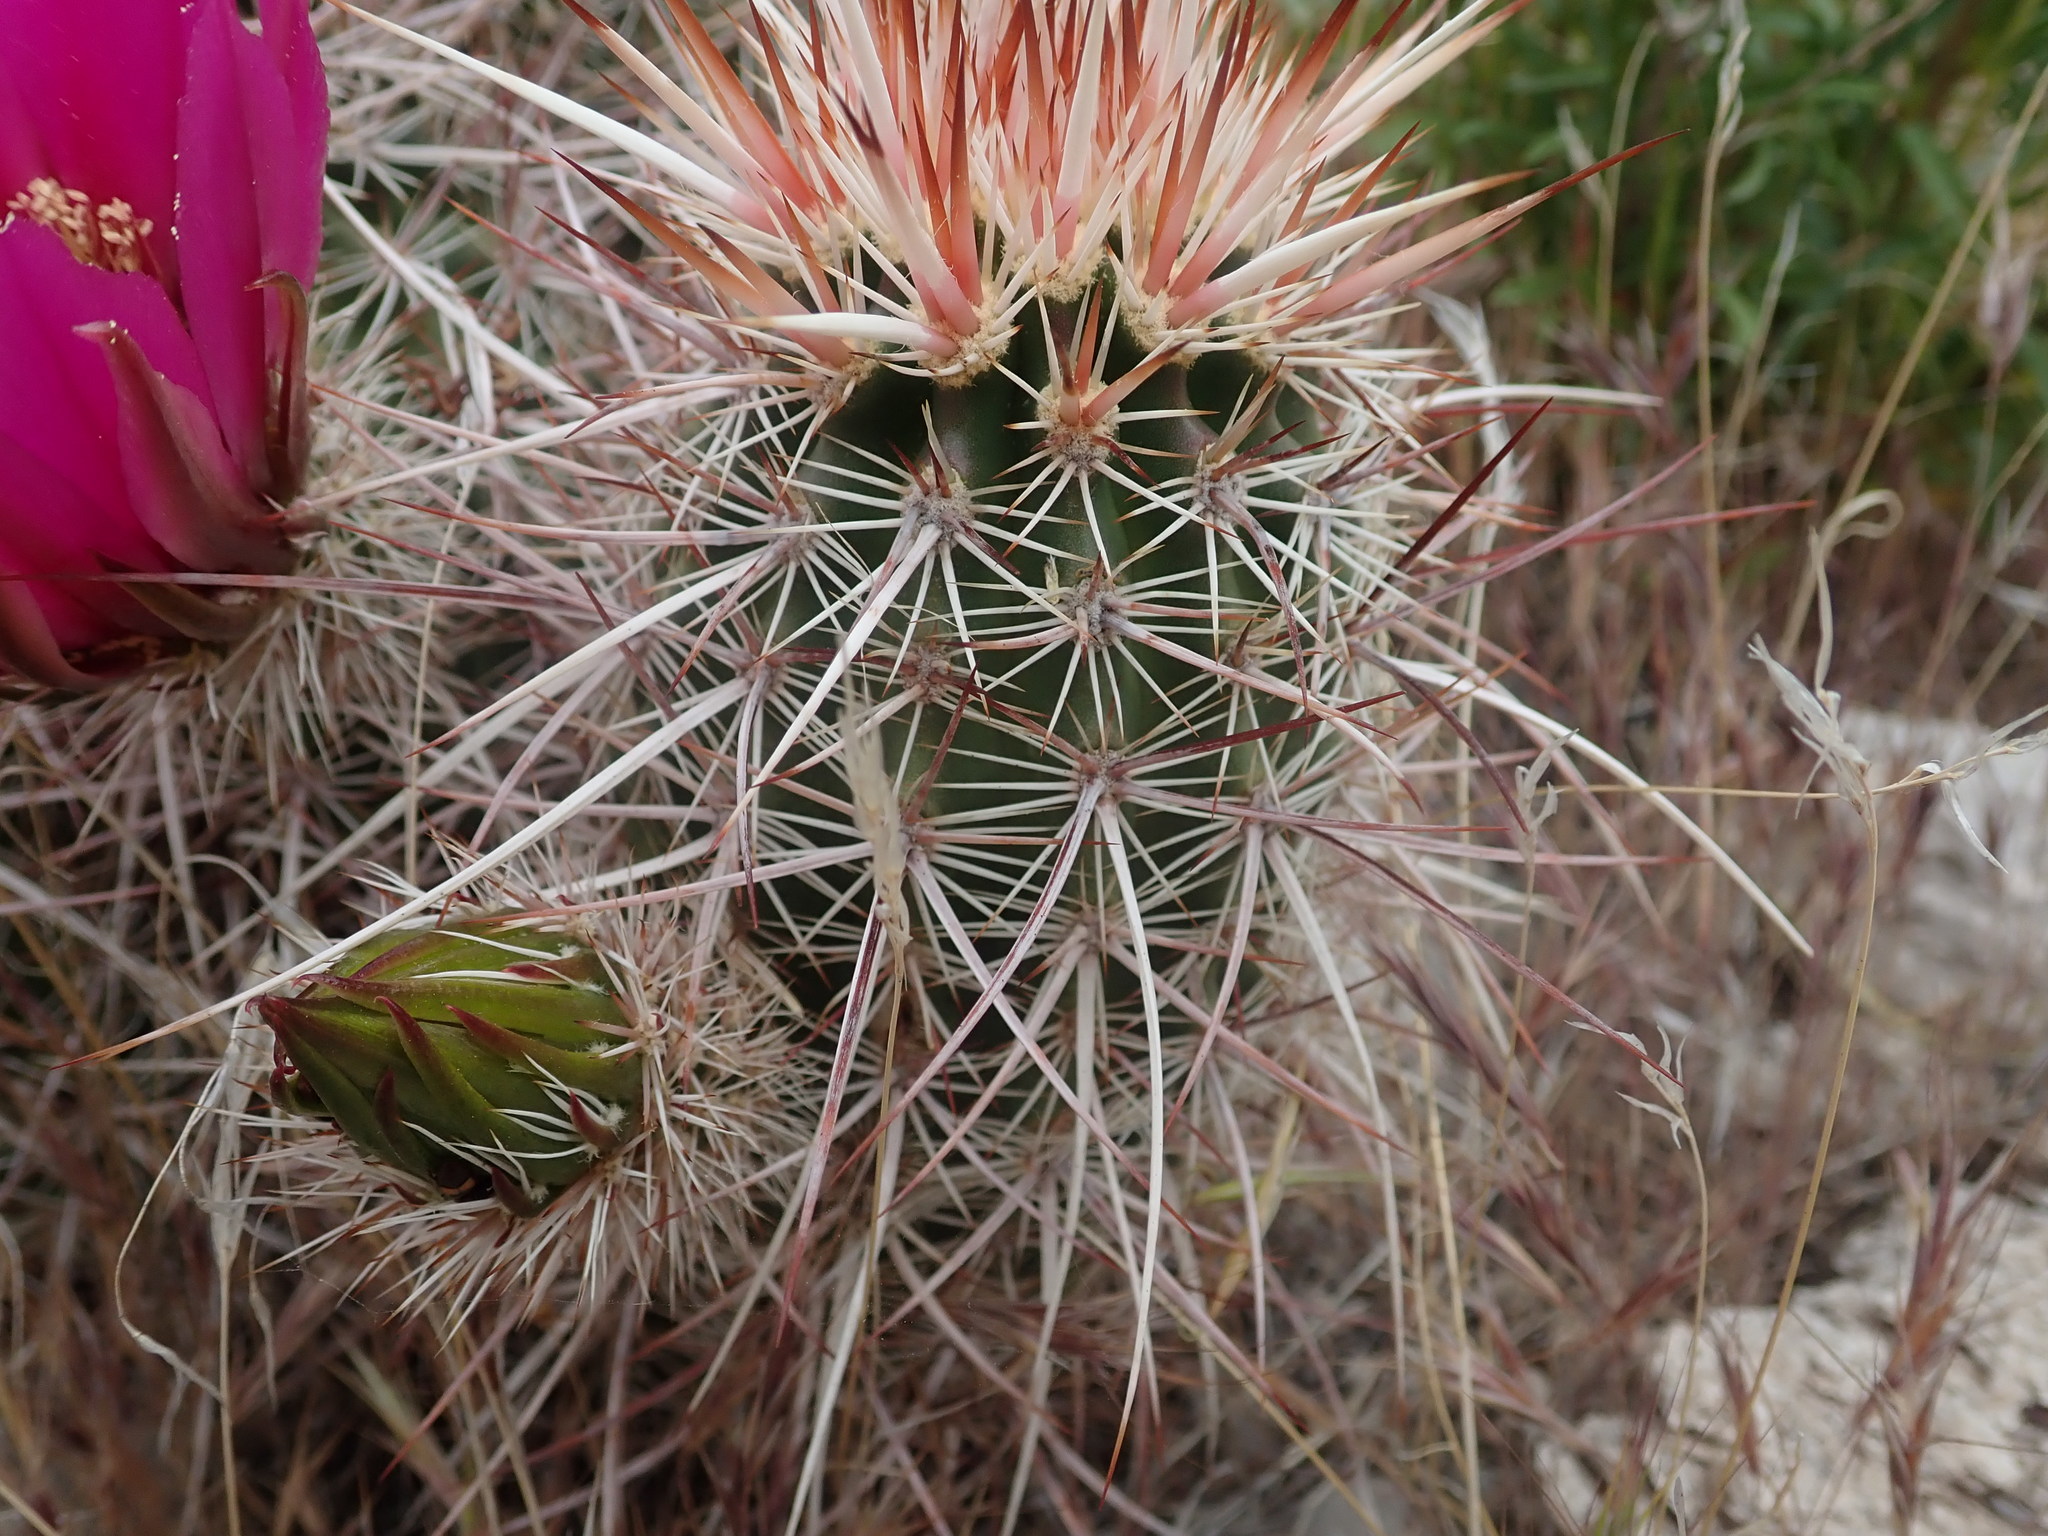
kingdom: Plantae
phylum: Tracheophyta
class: Magnoliopsida
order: Caryophyllales
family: Cactaceae
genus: Echinocereus
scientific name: Echinocereus engelmannii
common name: Engelmann's hedgehog cactus
